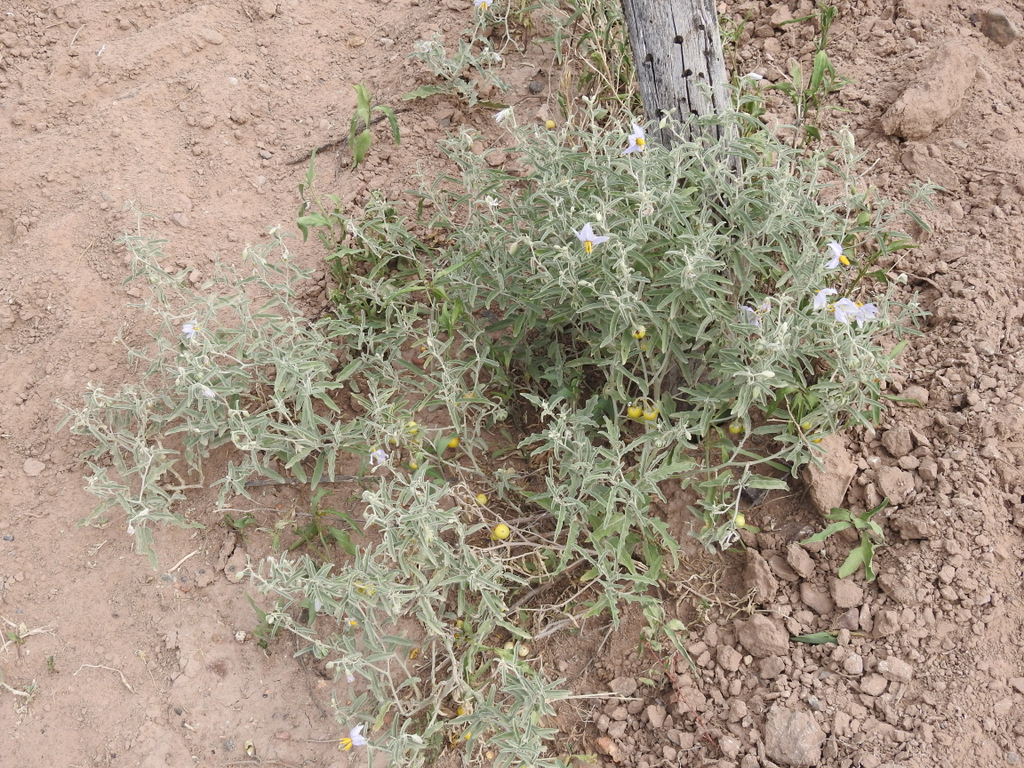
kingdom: Plantae
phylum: Tracheophyta
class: Magnoliopsida
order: Solanales
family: Solanaceae
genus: Solanum
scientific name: Solanum elaeagnifolium
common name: Silverleaf nightshade
